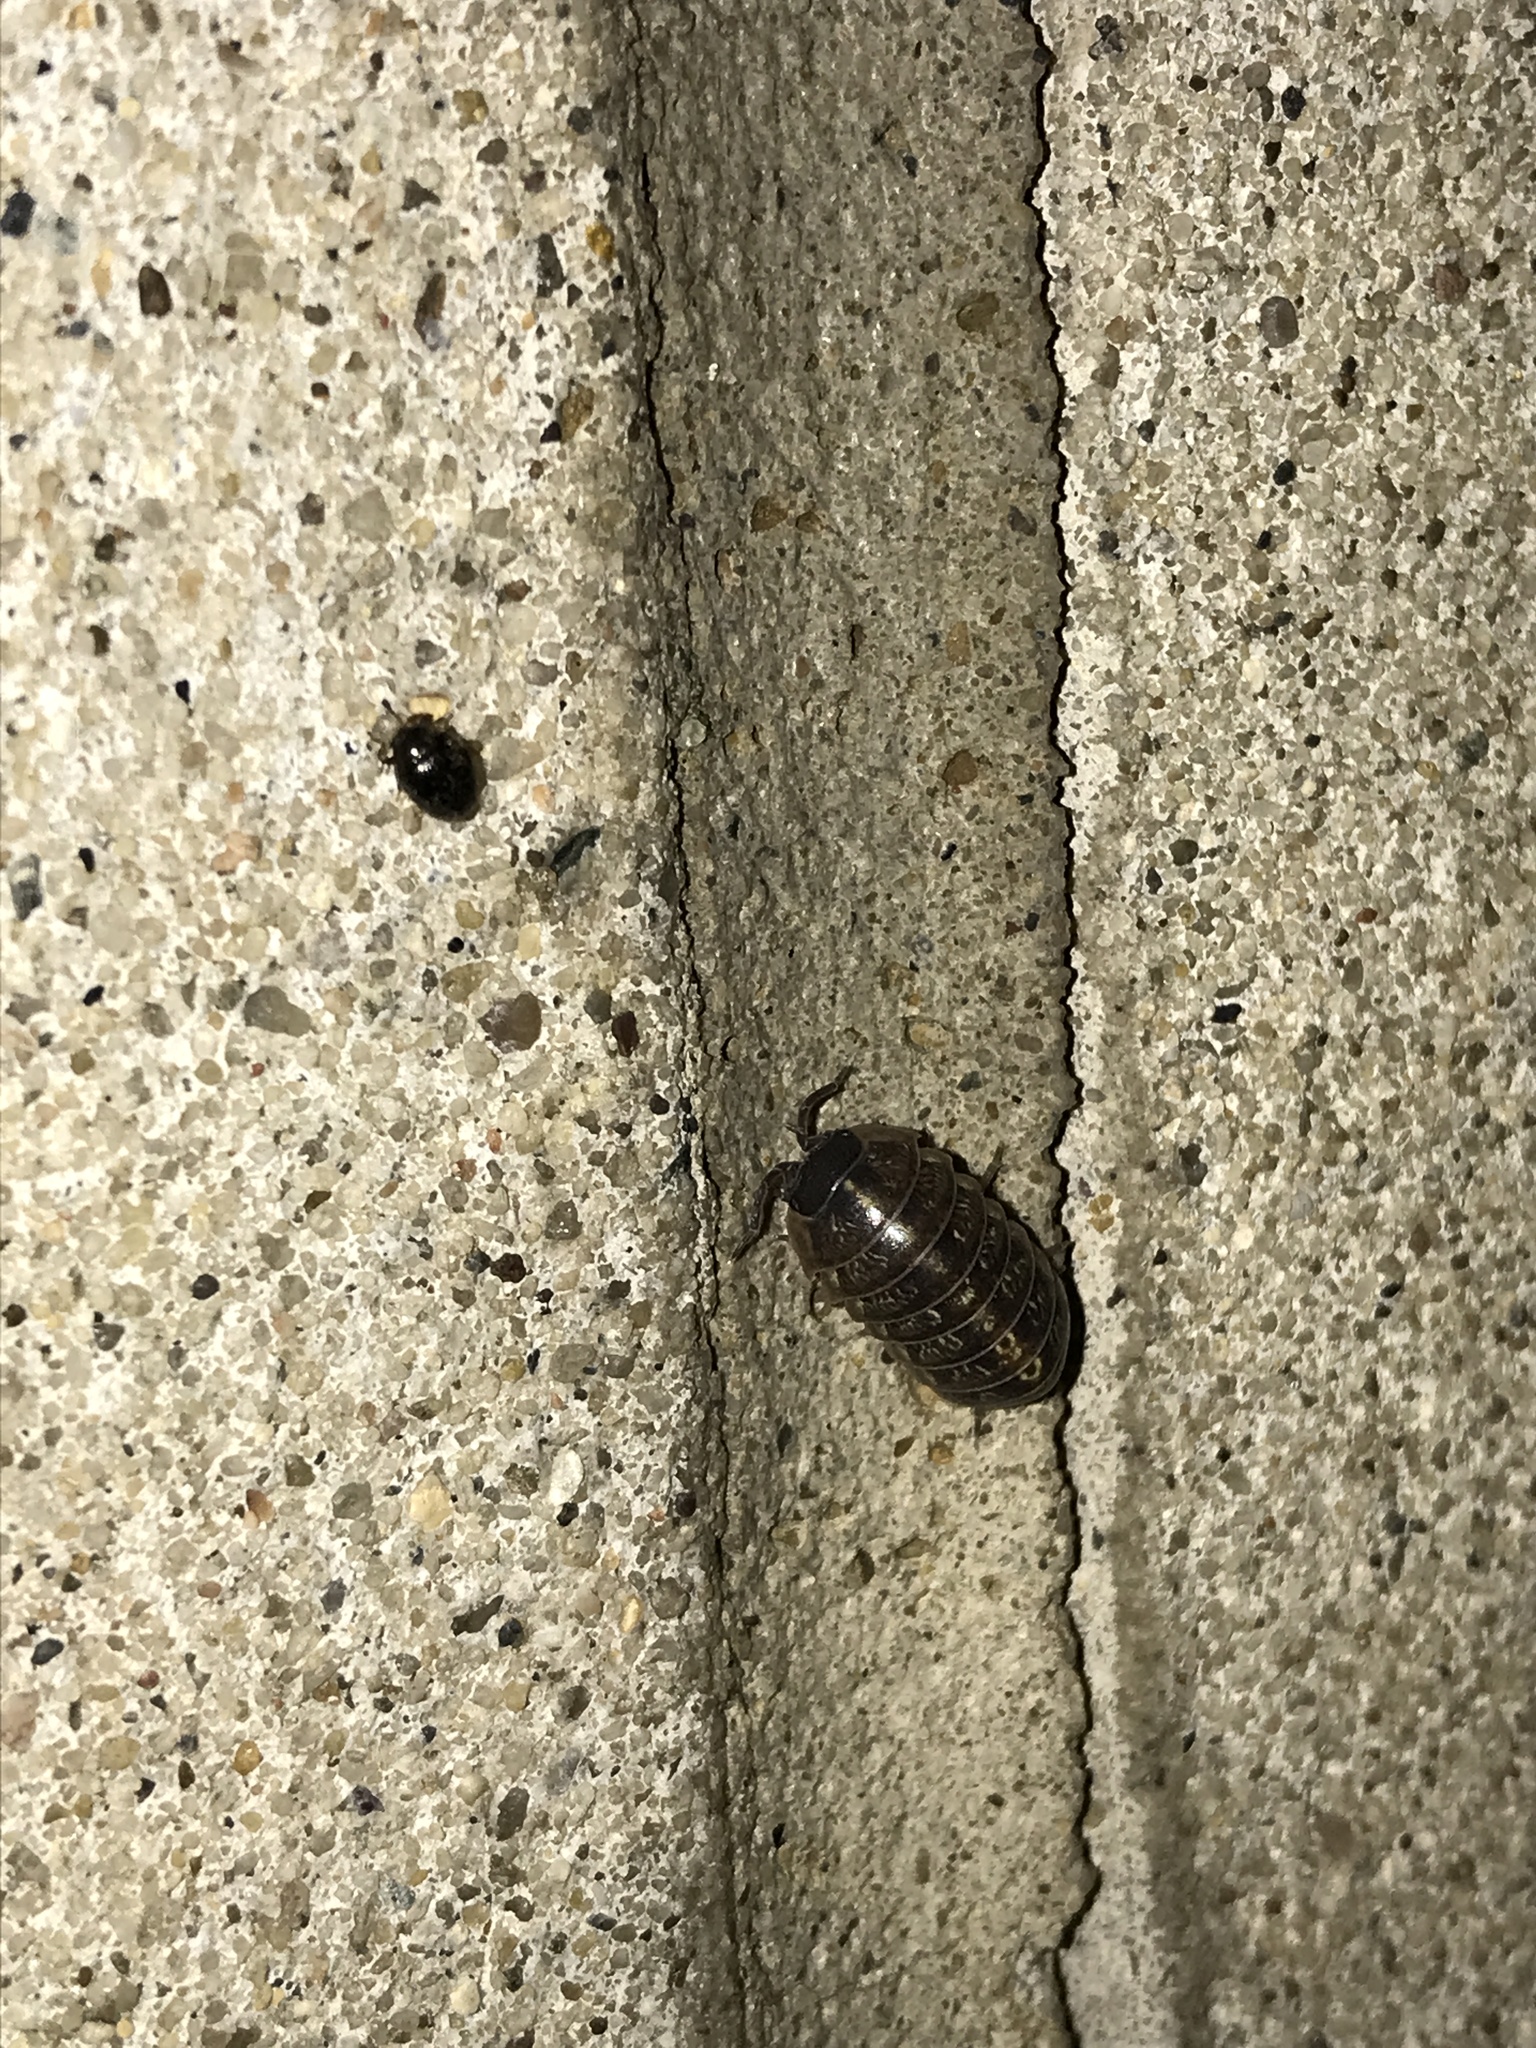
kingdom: Animalia
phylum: Arthropoda
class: Malacostraca
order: Isopoda
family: Armadillidiidae
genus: Armadillidium
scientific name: Armadillidium vulgare
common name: Common pill woodlouse
